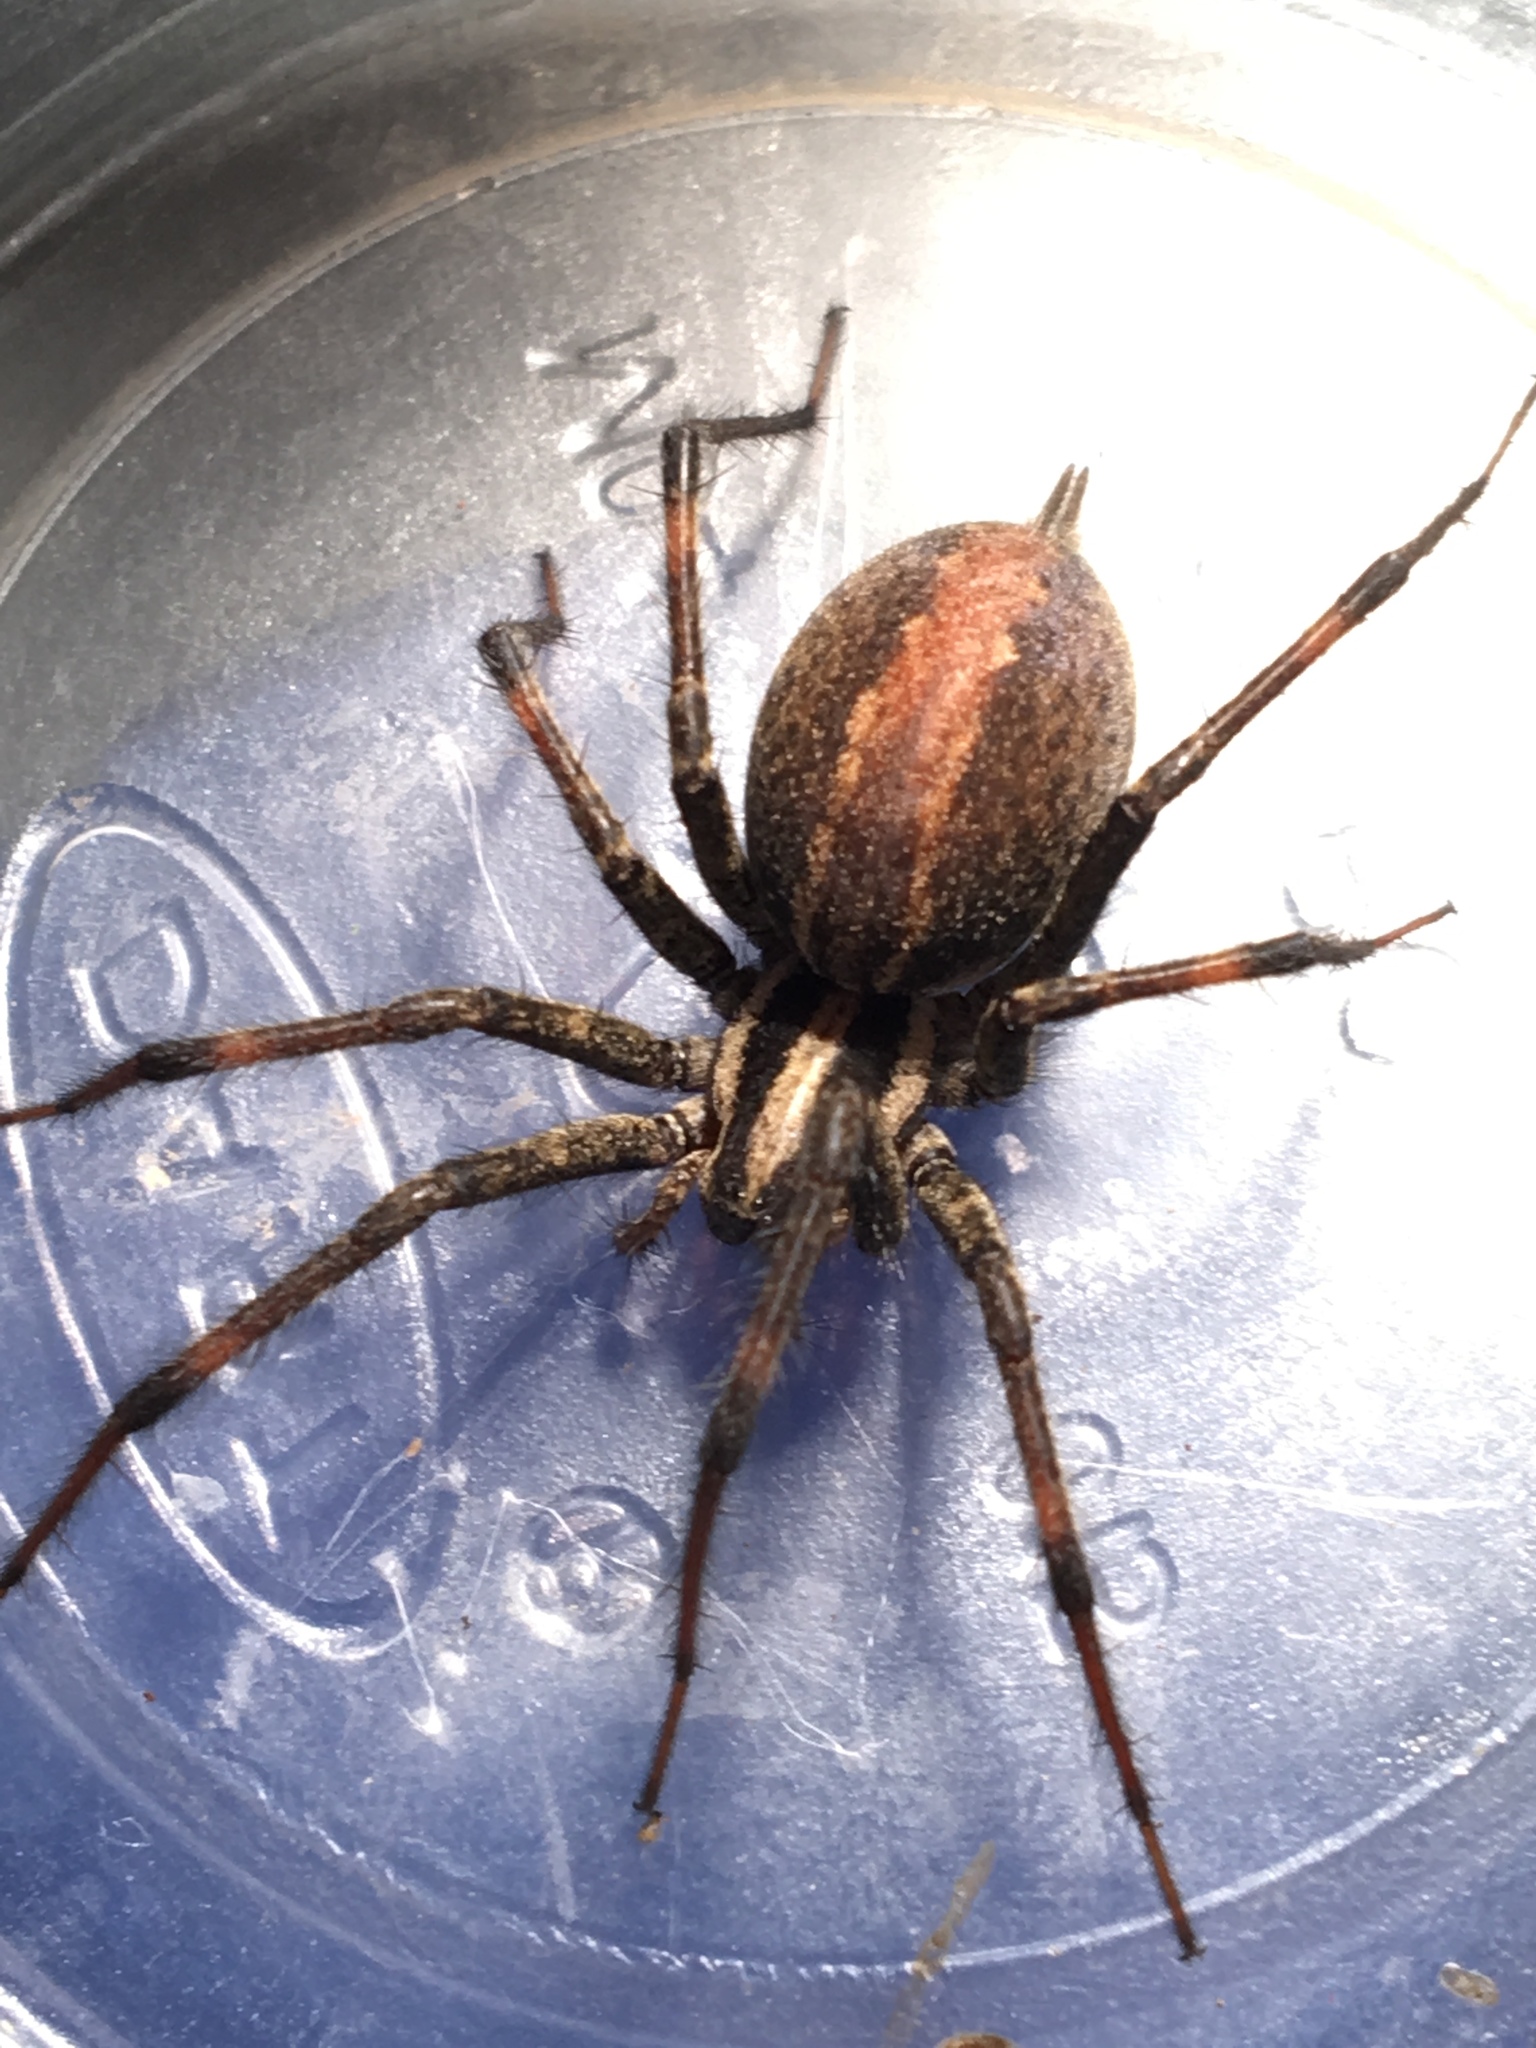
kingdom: Animalia
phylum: Arthropoda
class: Arachnida
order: Araneae
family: Agelenidae
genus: Agelenopsis
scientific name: Agelenopsis
